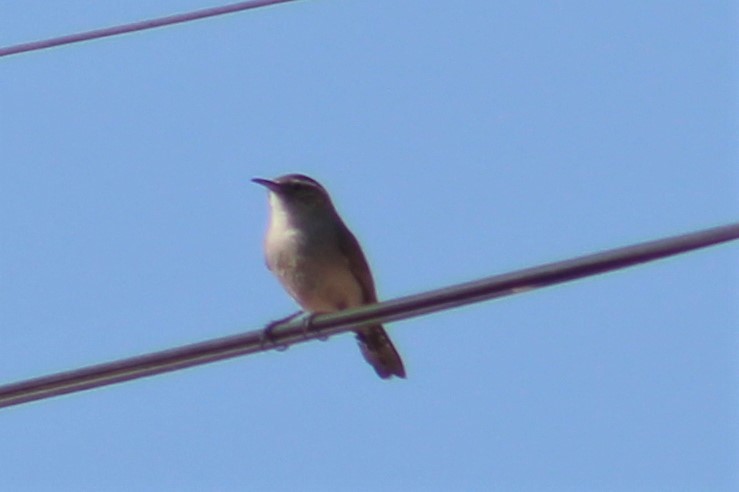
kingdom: Animalia
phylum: Chordata
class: Aves
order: Passeriformes
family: Troglodytidae
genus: Thryomanes
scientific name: Thryomanes bewickii
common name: Bewick's wren
